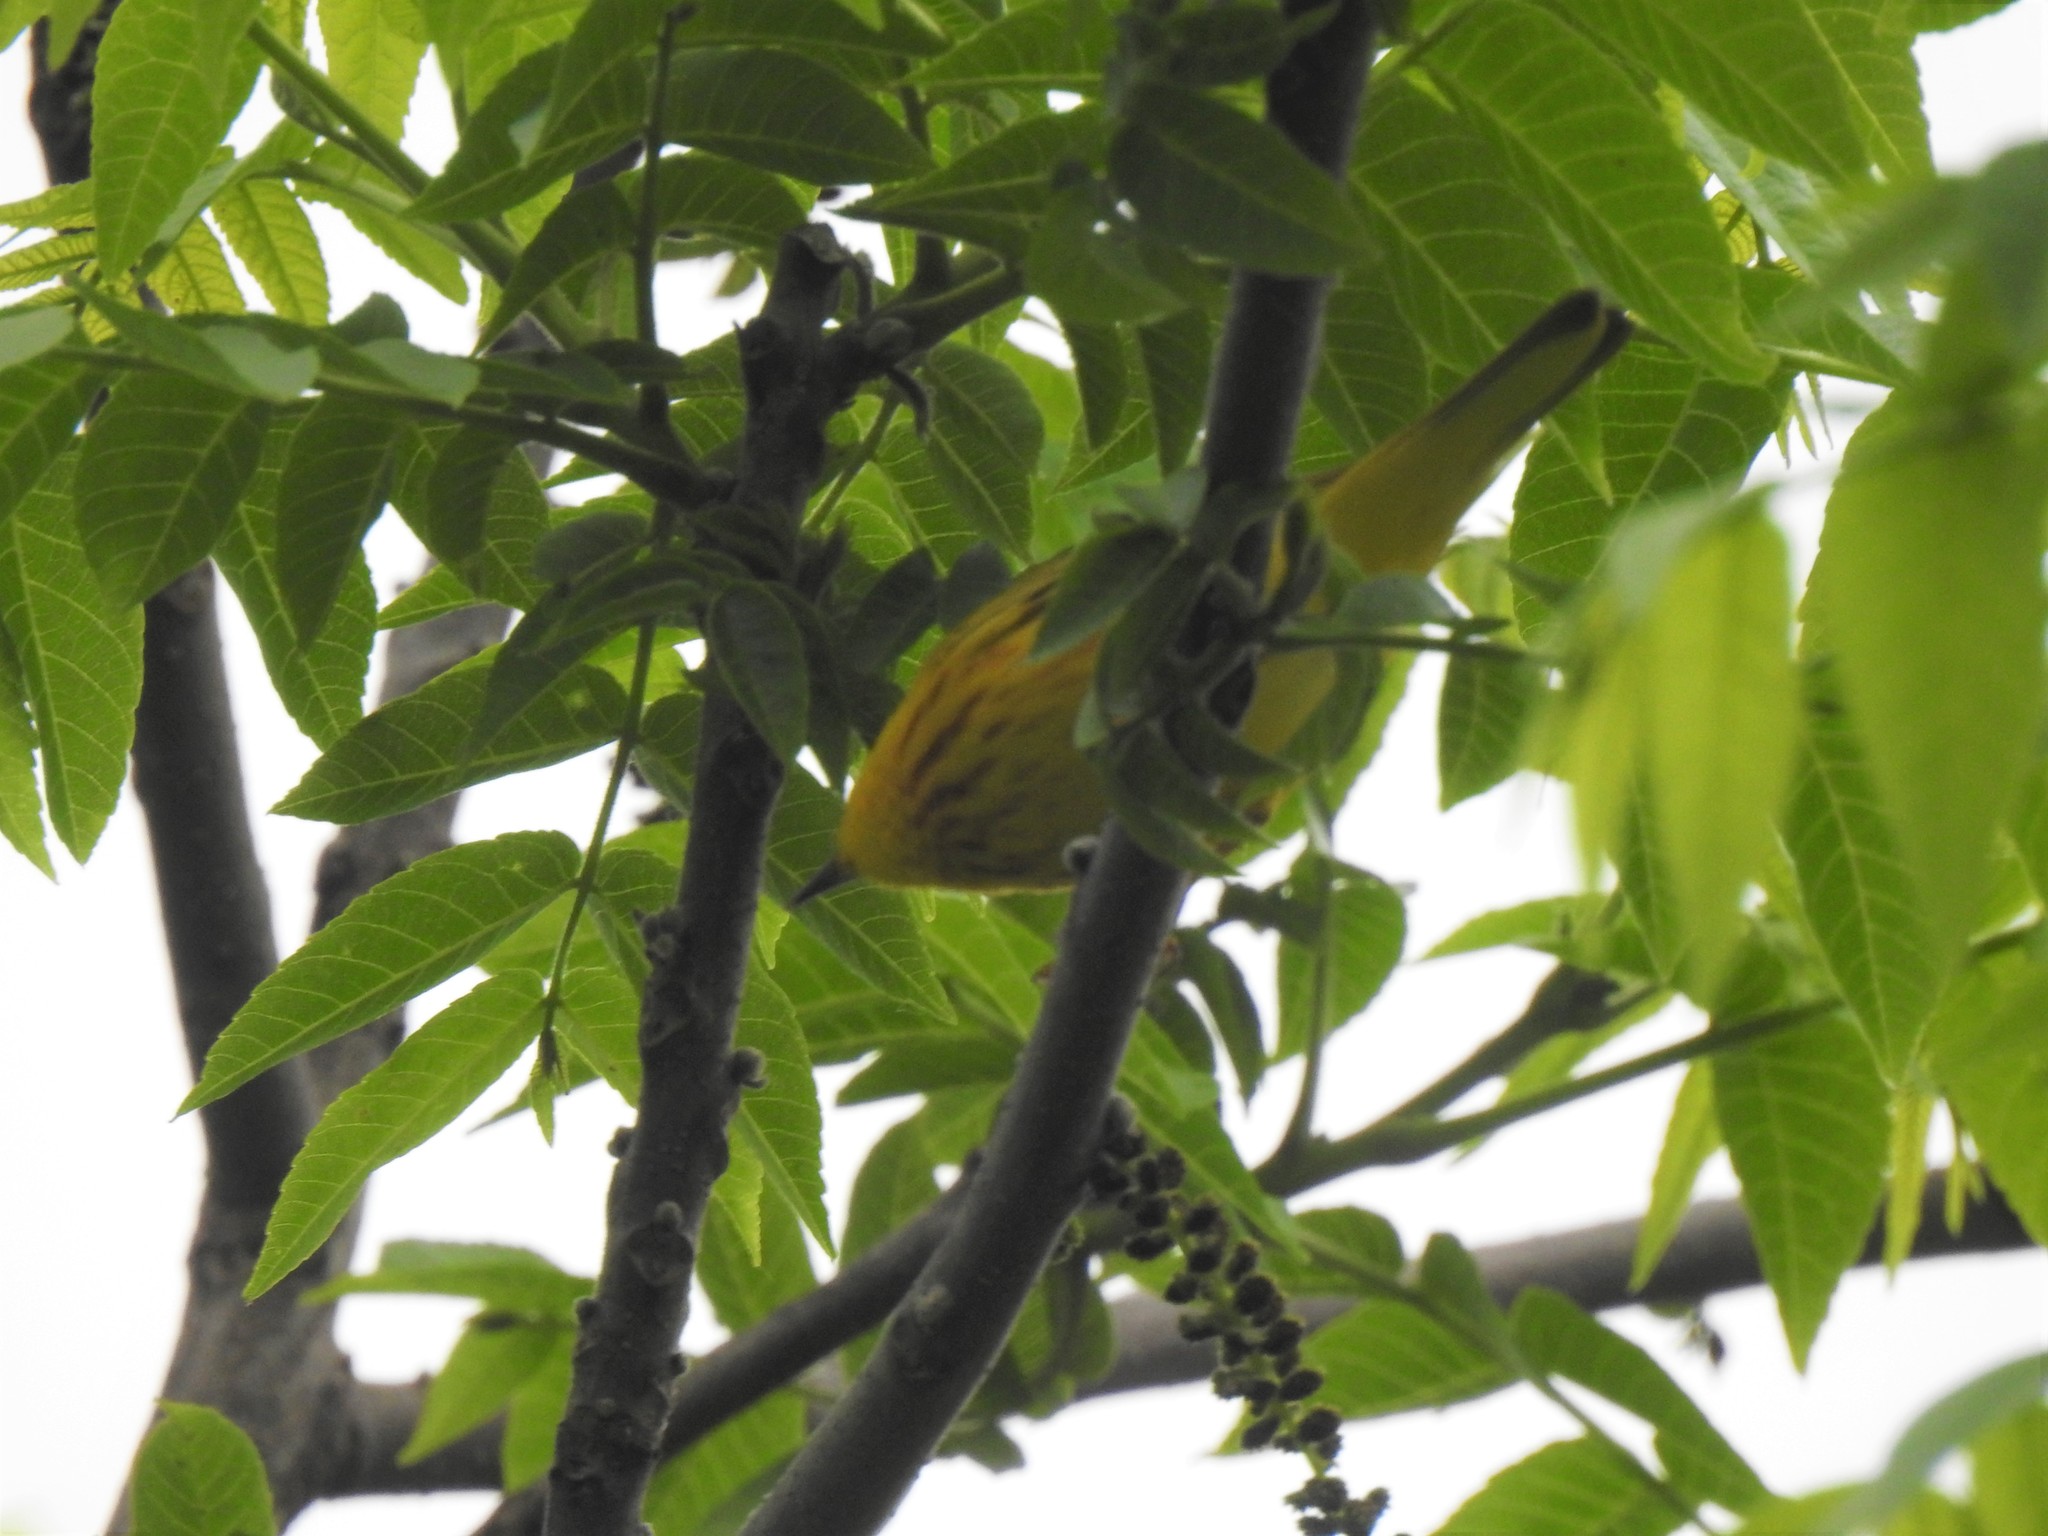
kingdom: Animalia
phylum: Chordata
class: Aves
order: Passeriformes
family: Parulidae
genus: Setophaga
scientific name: Setophaga petechia
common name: Yellow warbler
